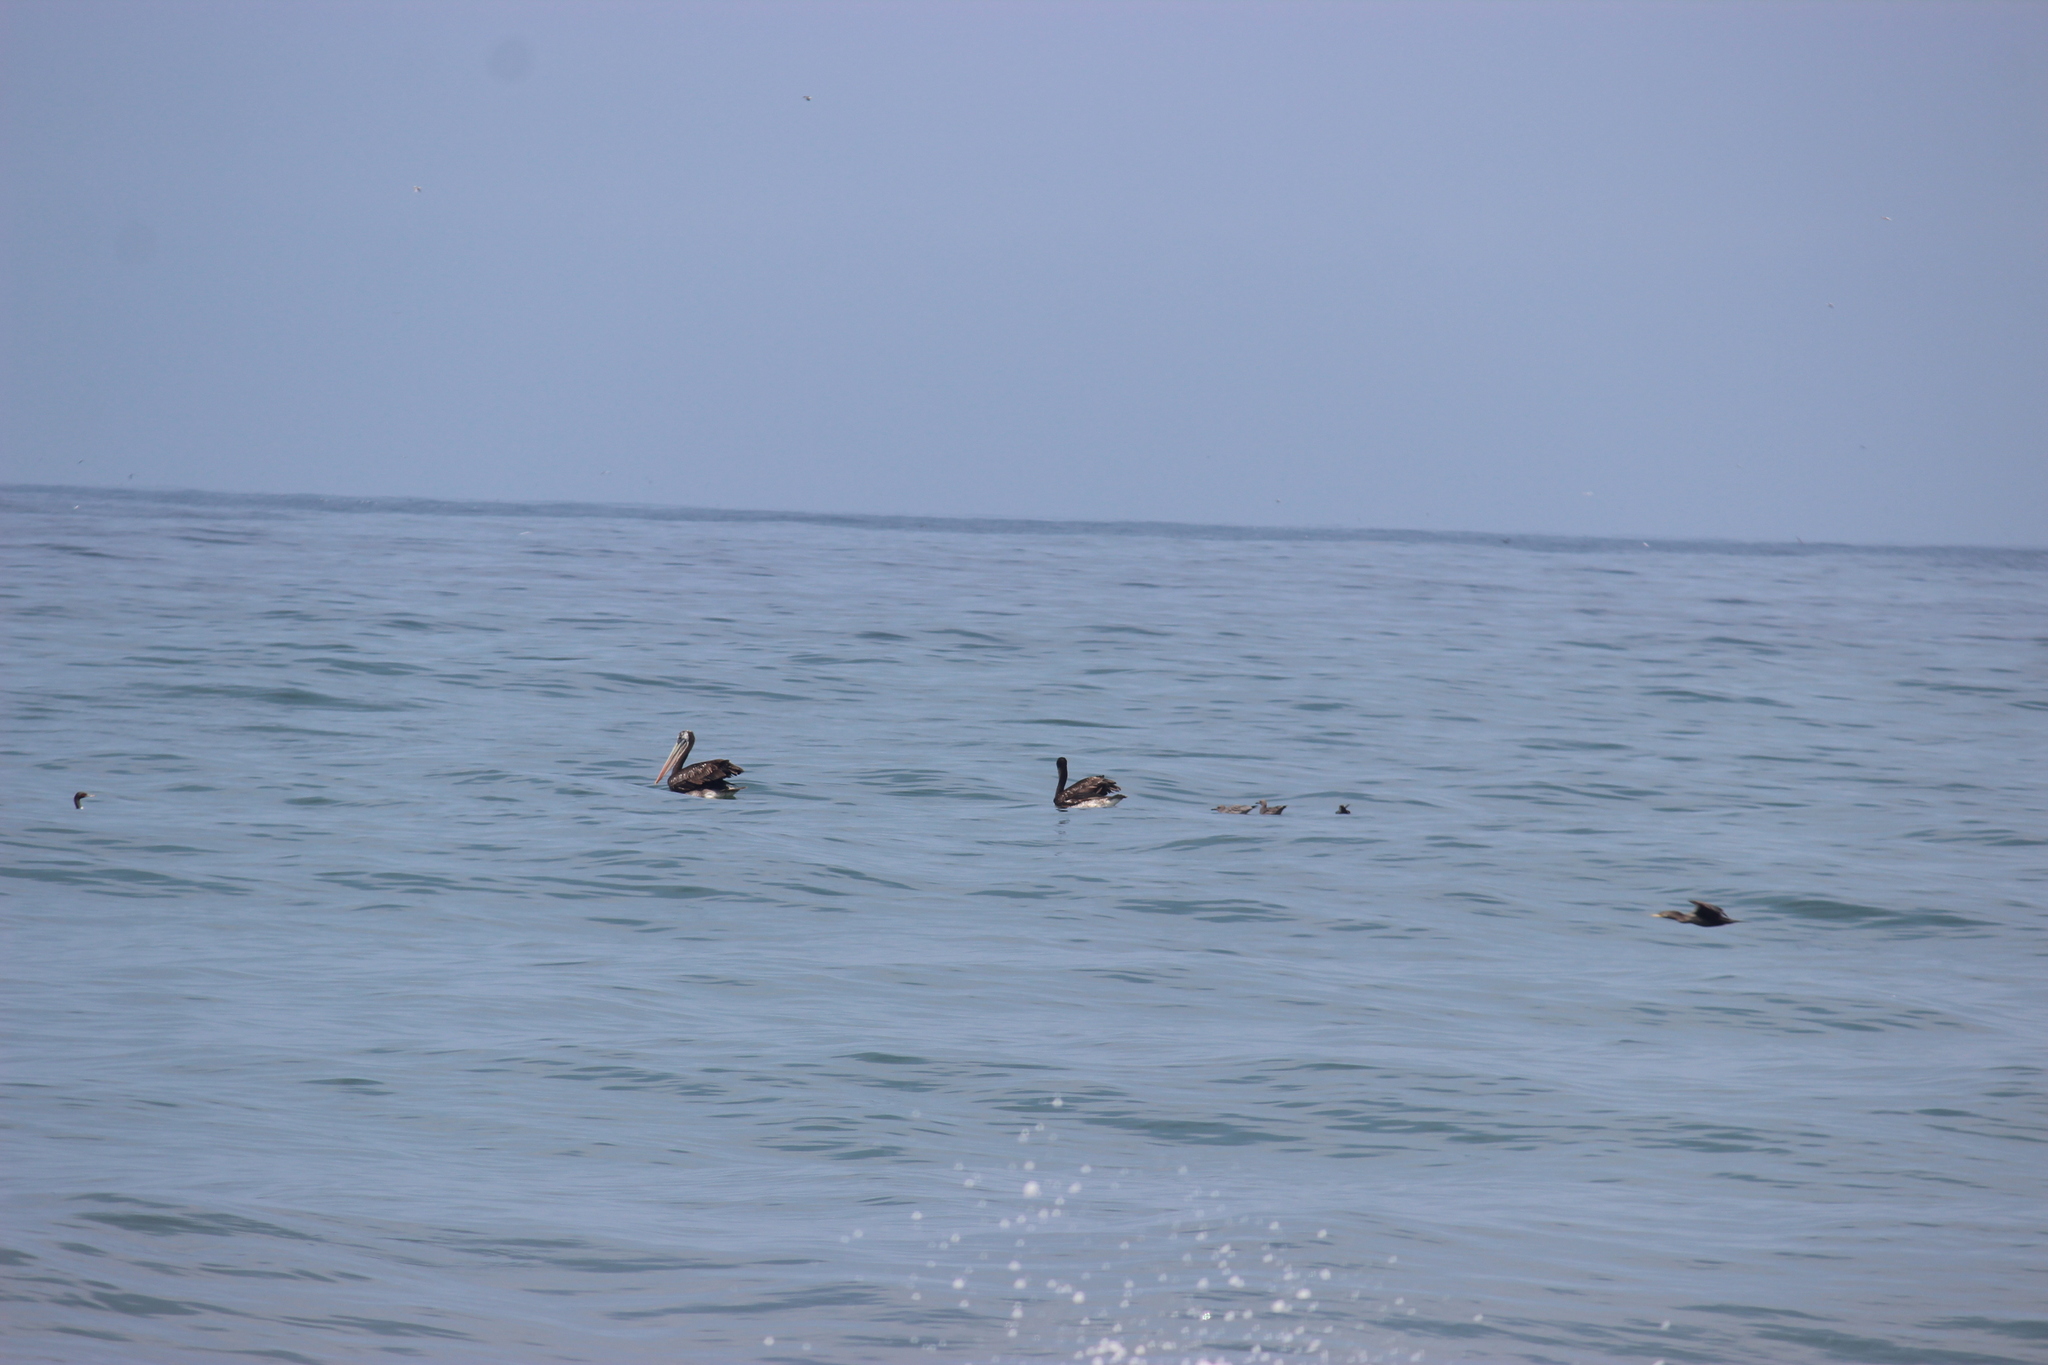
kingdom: Animalia
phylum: Chordata
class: Aves
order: Pelecaniformes
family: Pelecanidae
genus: Pelecanus
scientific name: Pelecanus thagus
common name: Peruvian pelican
